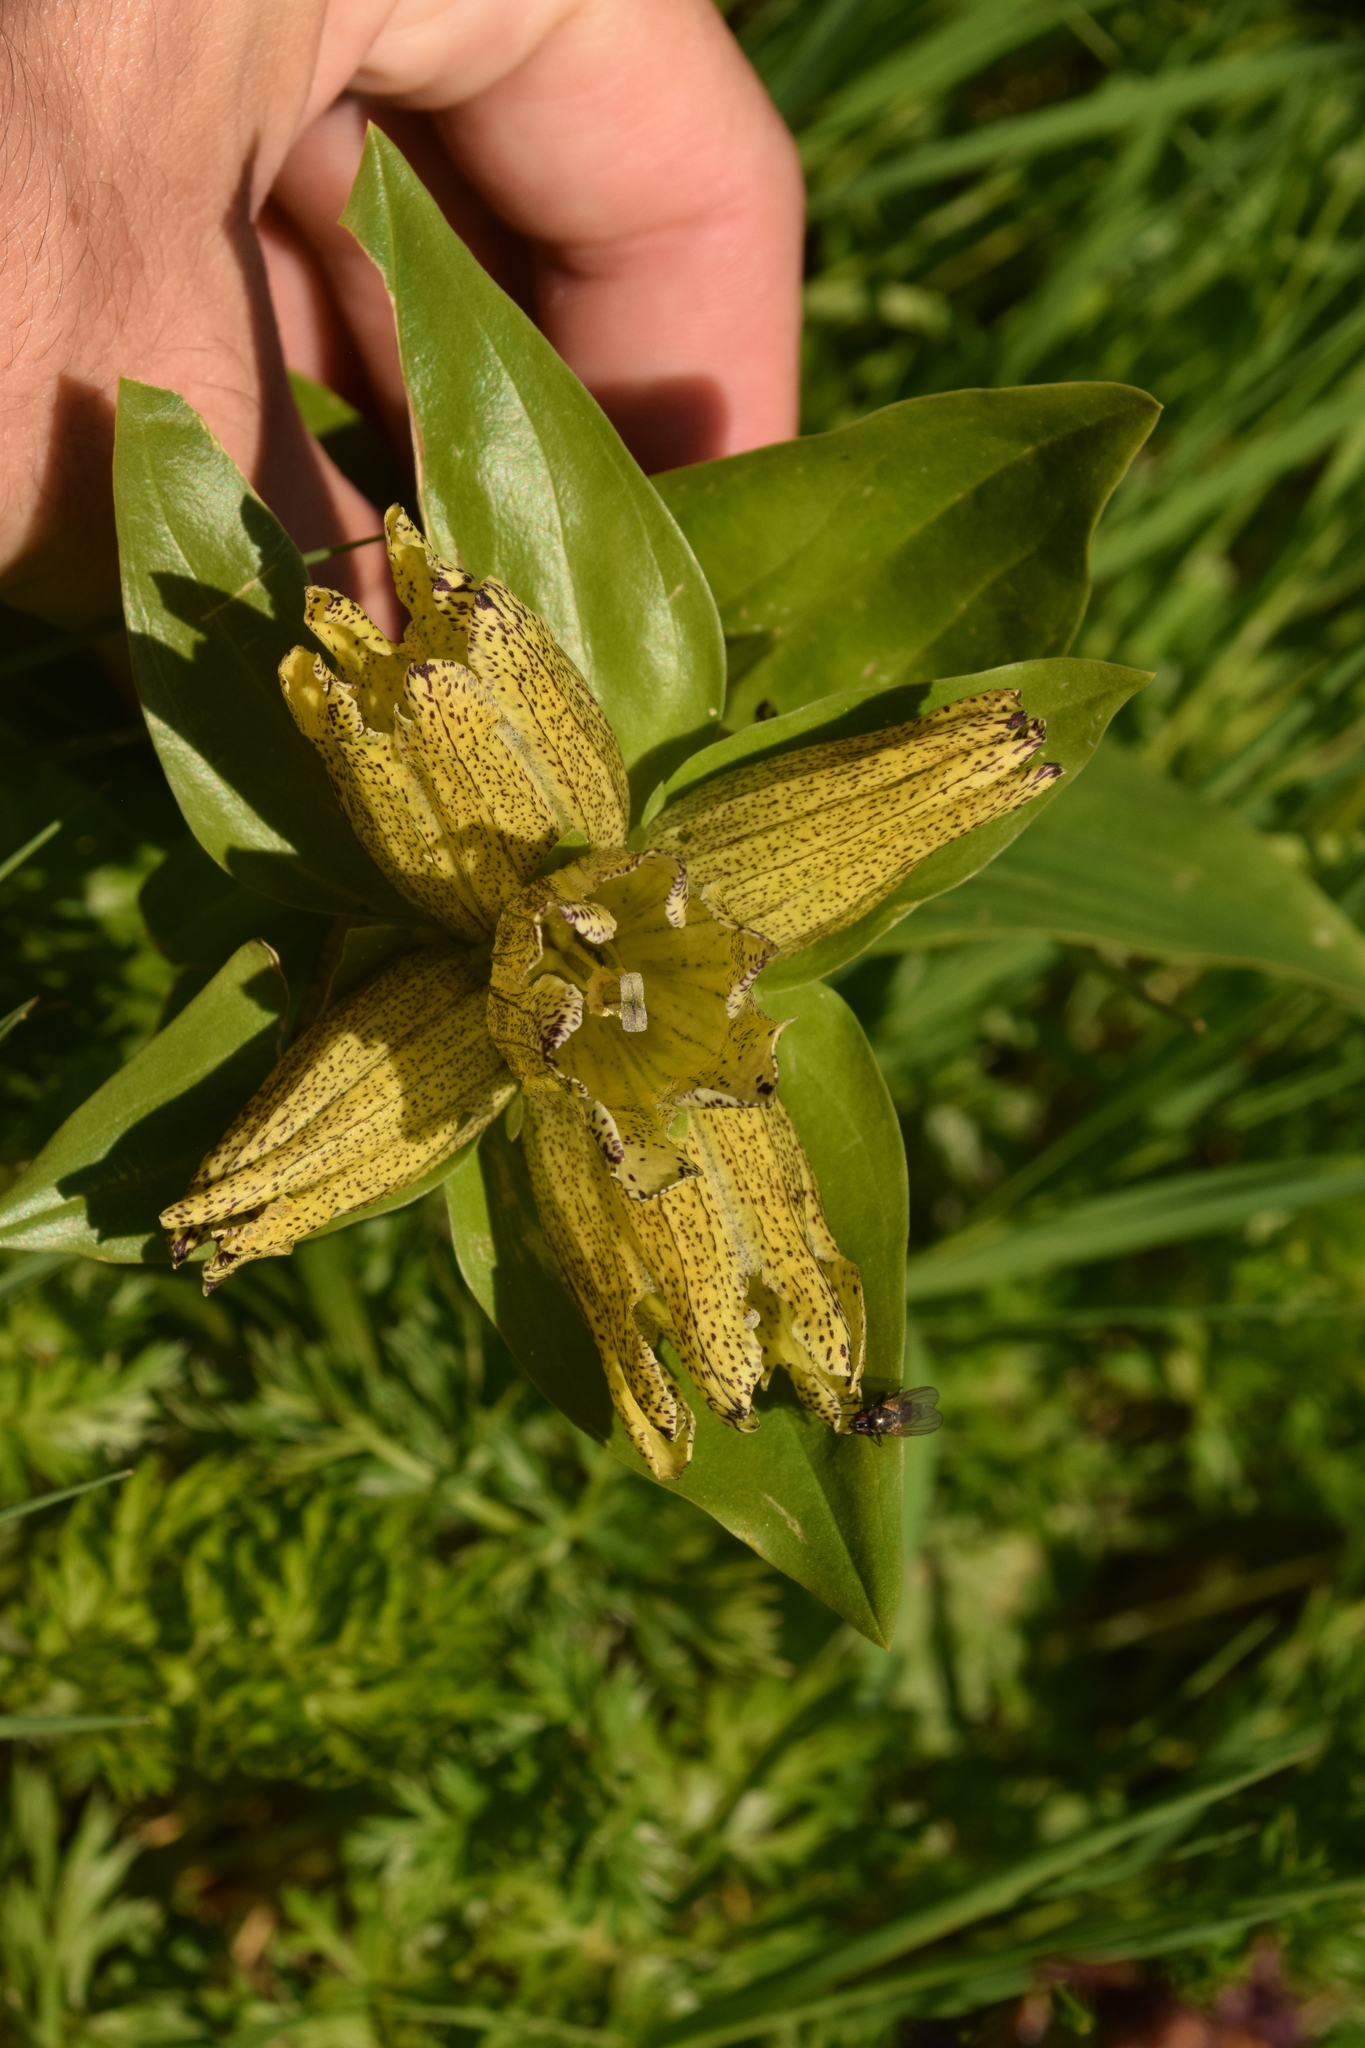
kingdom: Plantae
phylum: Tracheophyta
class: Magnoliopsida
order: Gentianales
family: Gentianaceae
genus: Gentiana
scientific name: Gentiana punctata
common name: Spotted gentian
